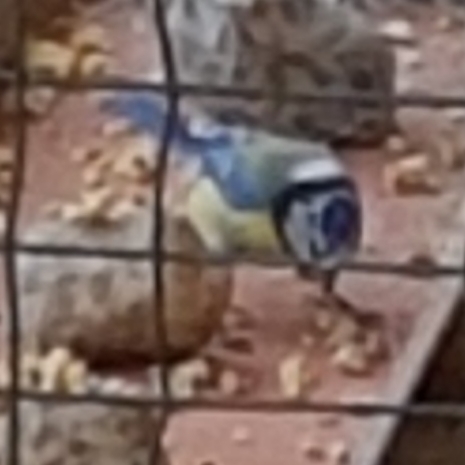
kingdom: Animalia
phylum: Chordata
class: Aves
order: Passeriformes
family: Paridae
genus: Cyanistes
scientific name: Cyanistes caeruleus
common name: Eurasian blue tit
